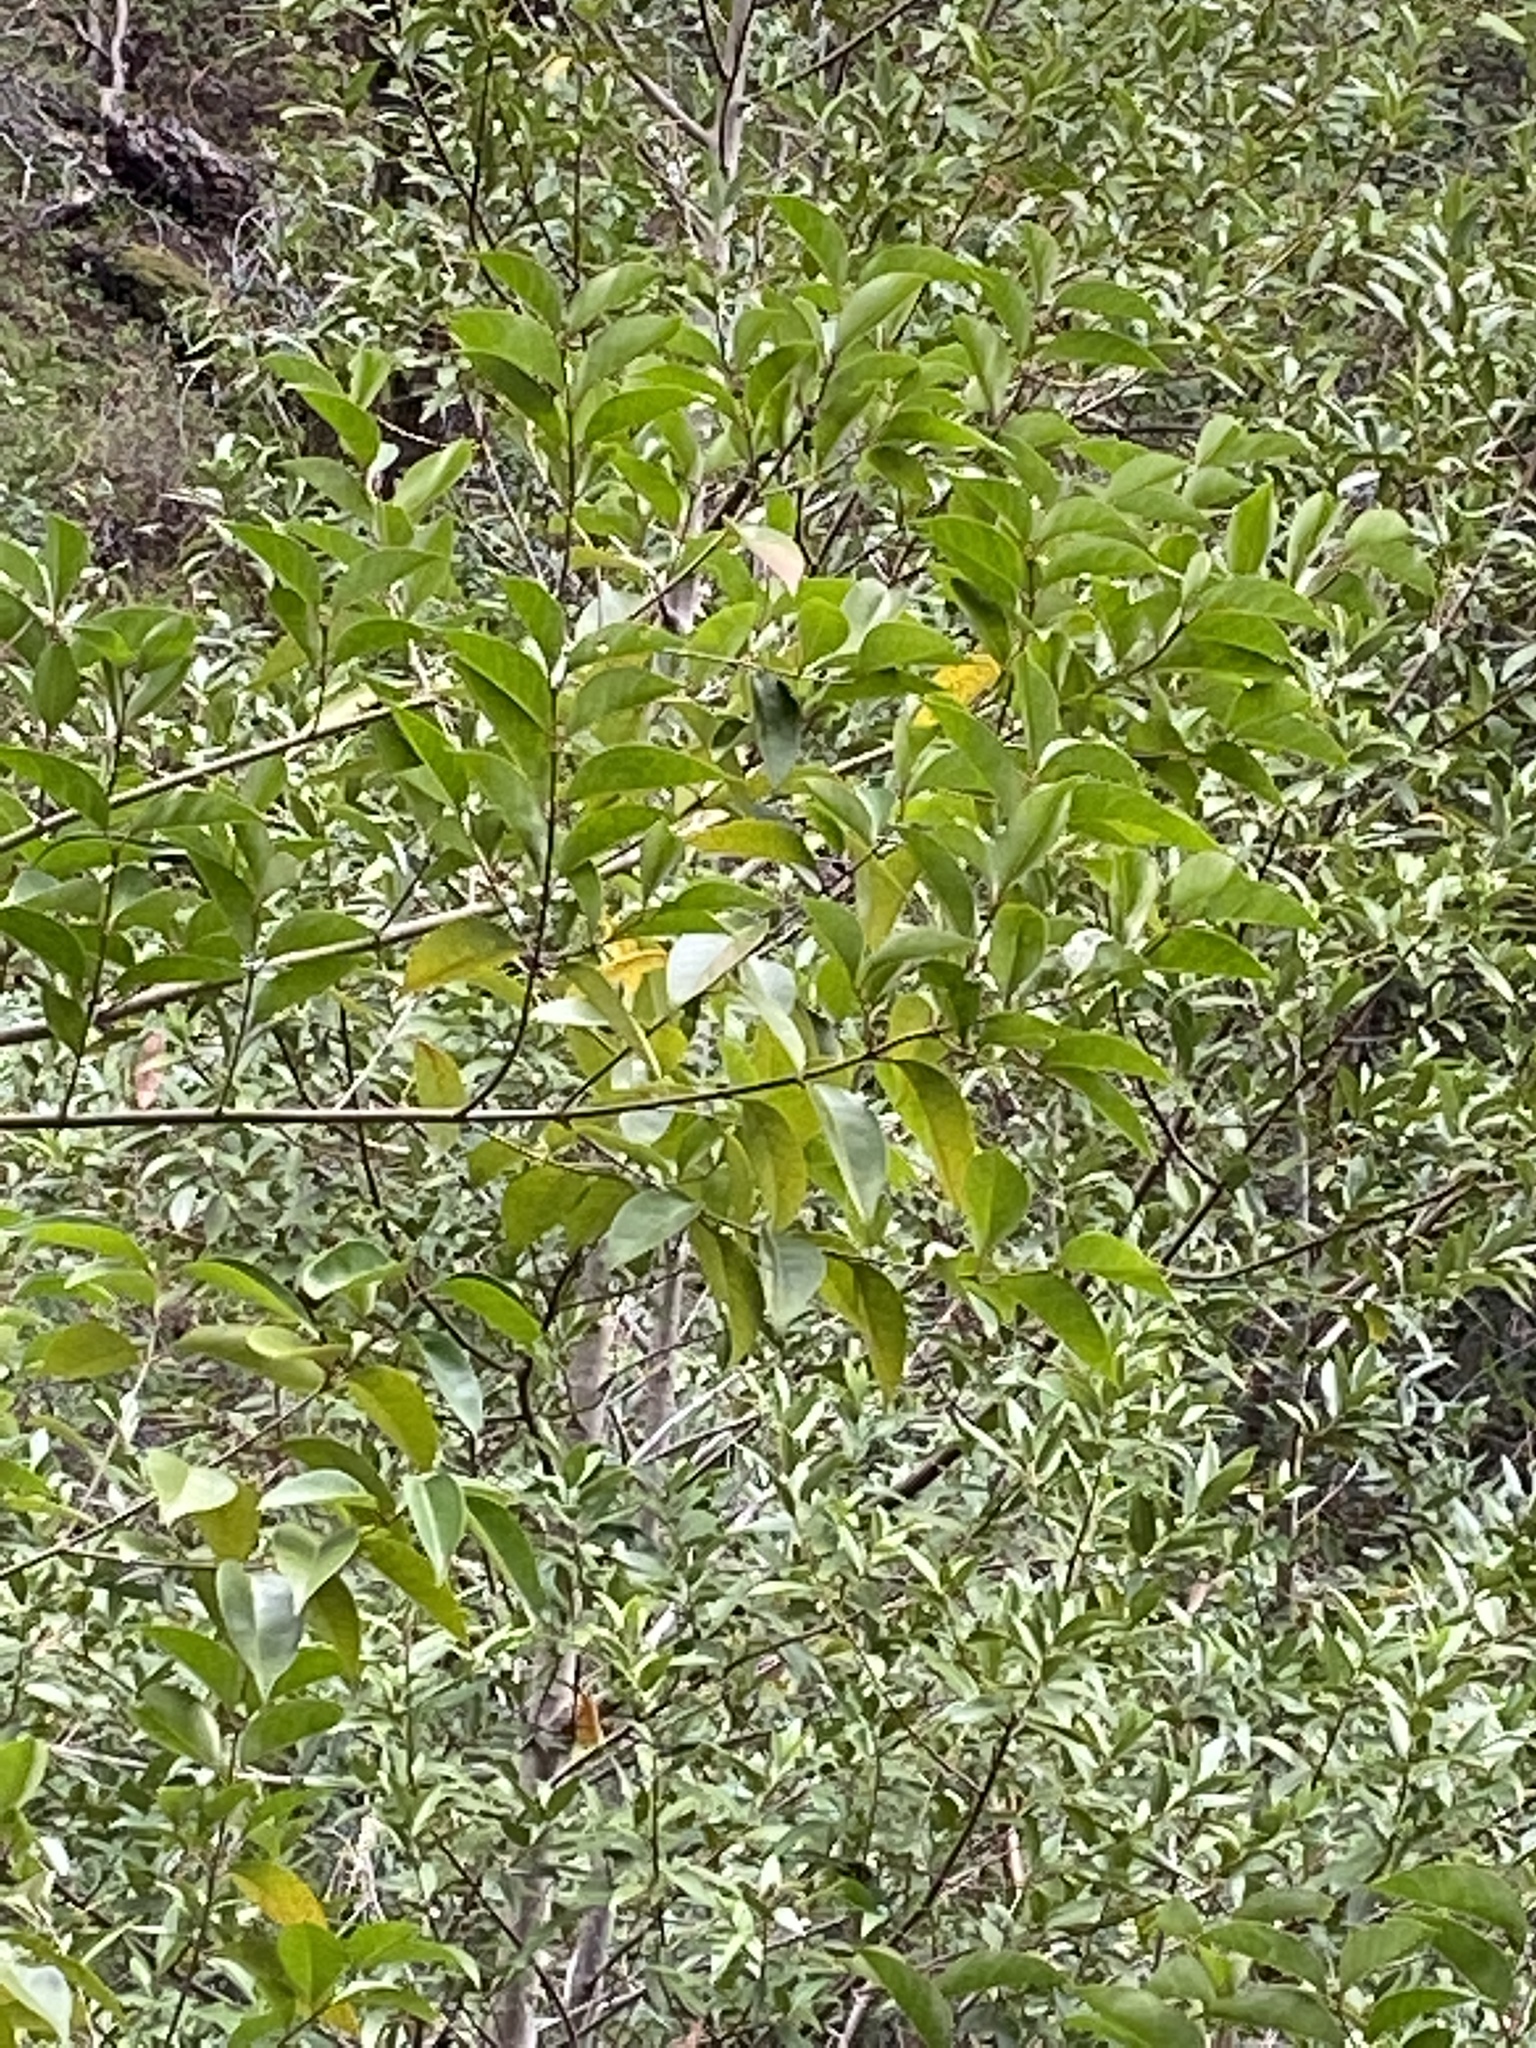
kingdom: Plantae
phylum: Tracheophyta
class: Magnoliopsida
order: Lamiales
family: Oleaceae
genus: Ligustrum
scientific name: Ligustrum lucidum
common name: Glossy privet
